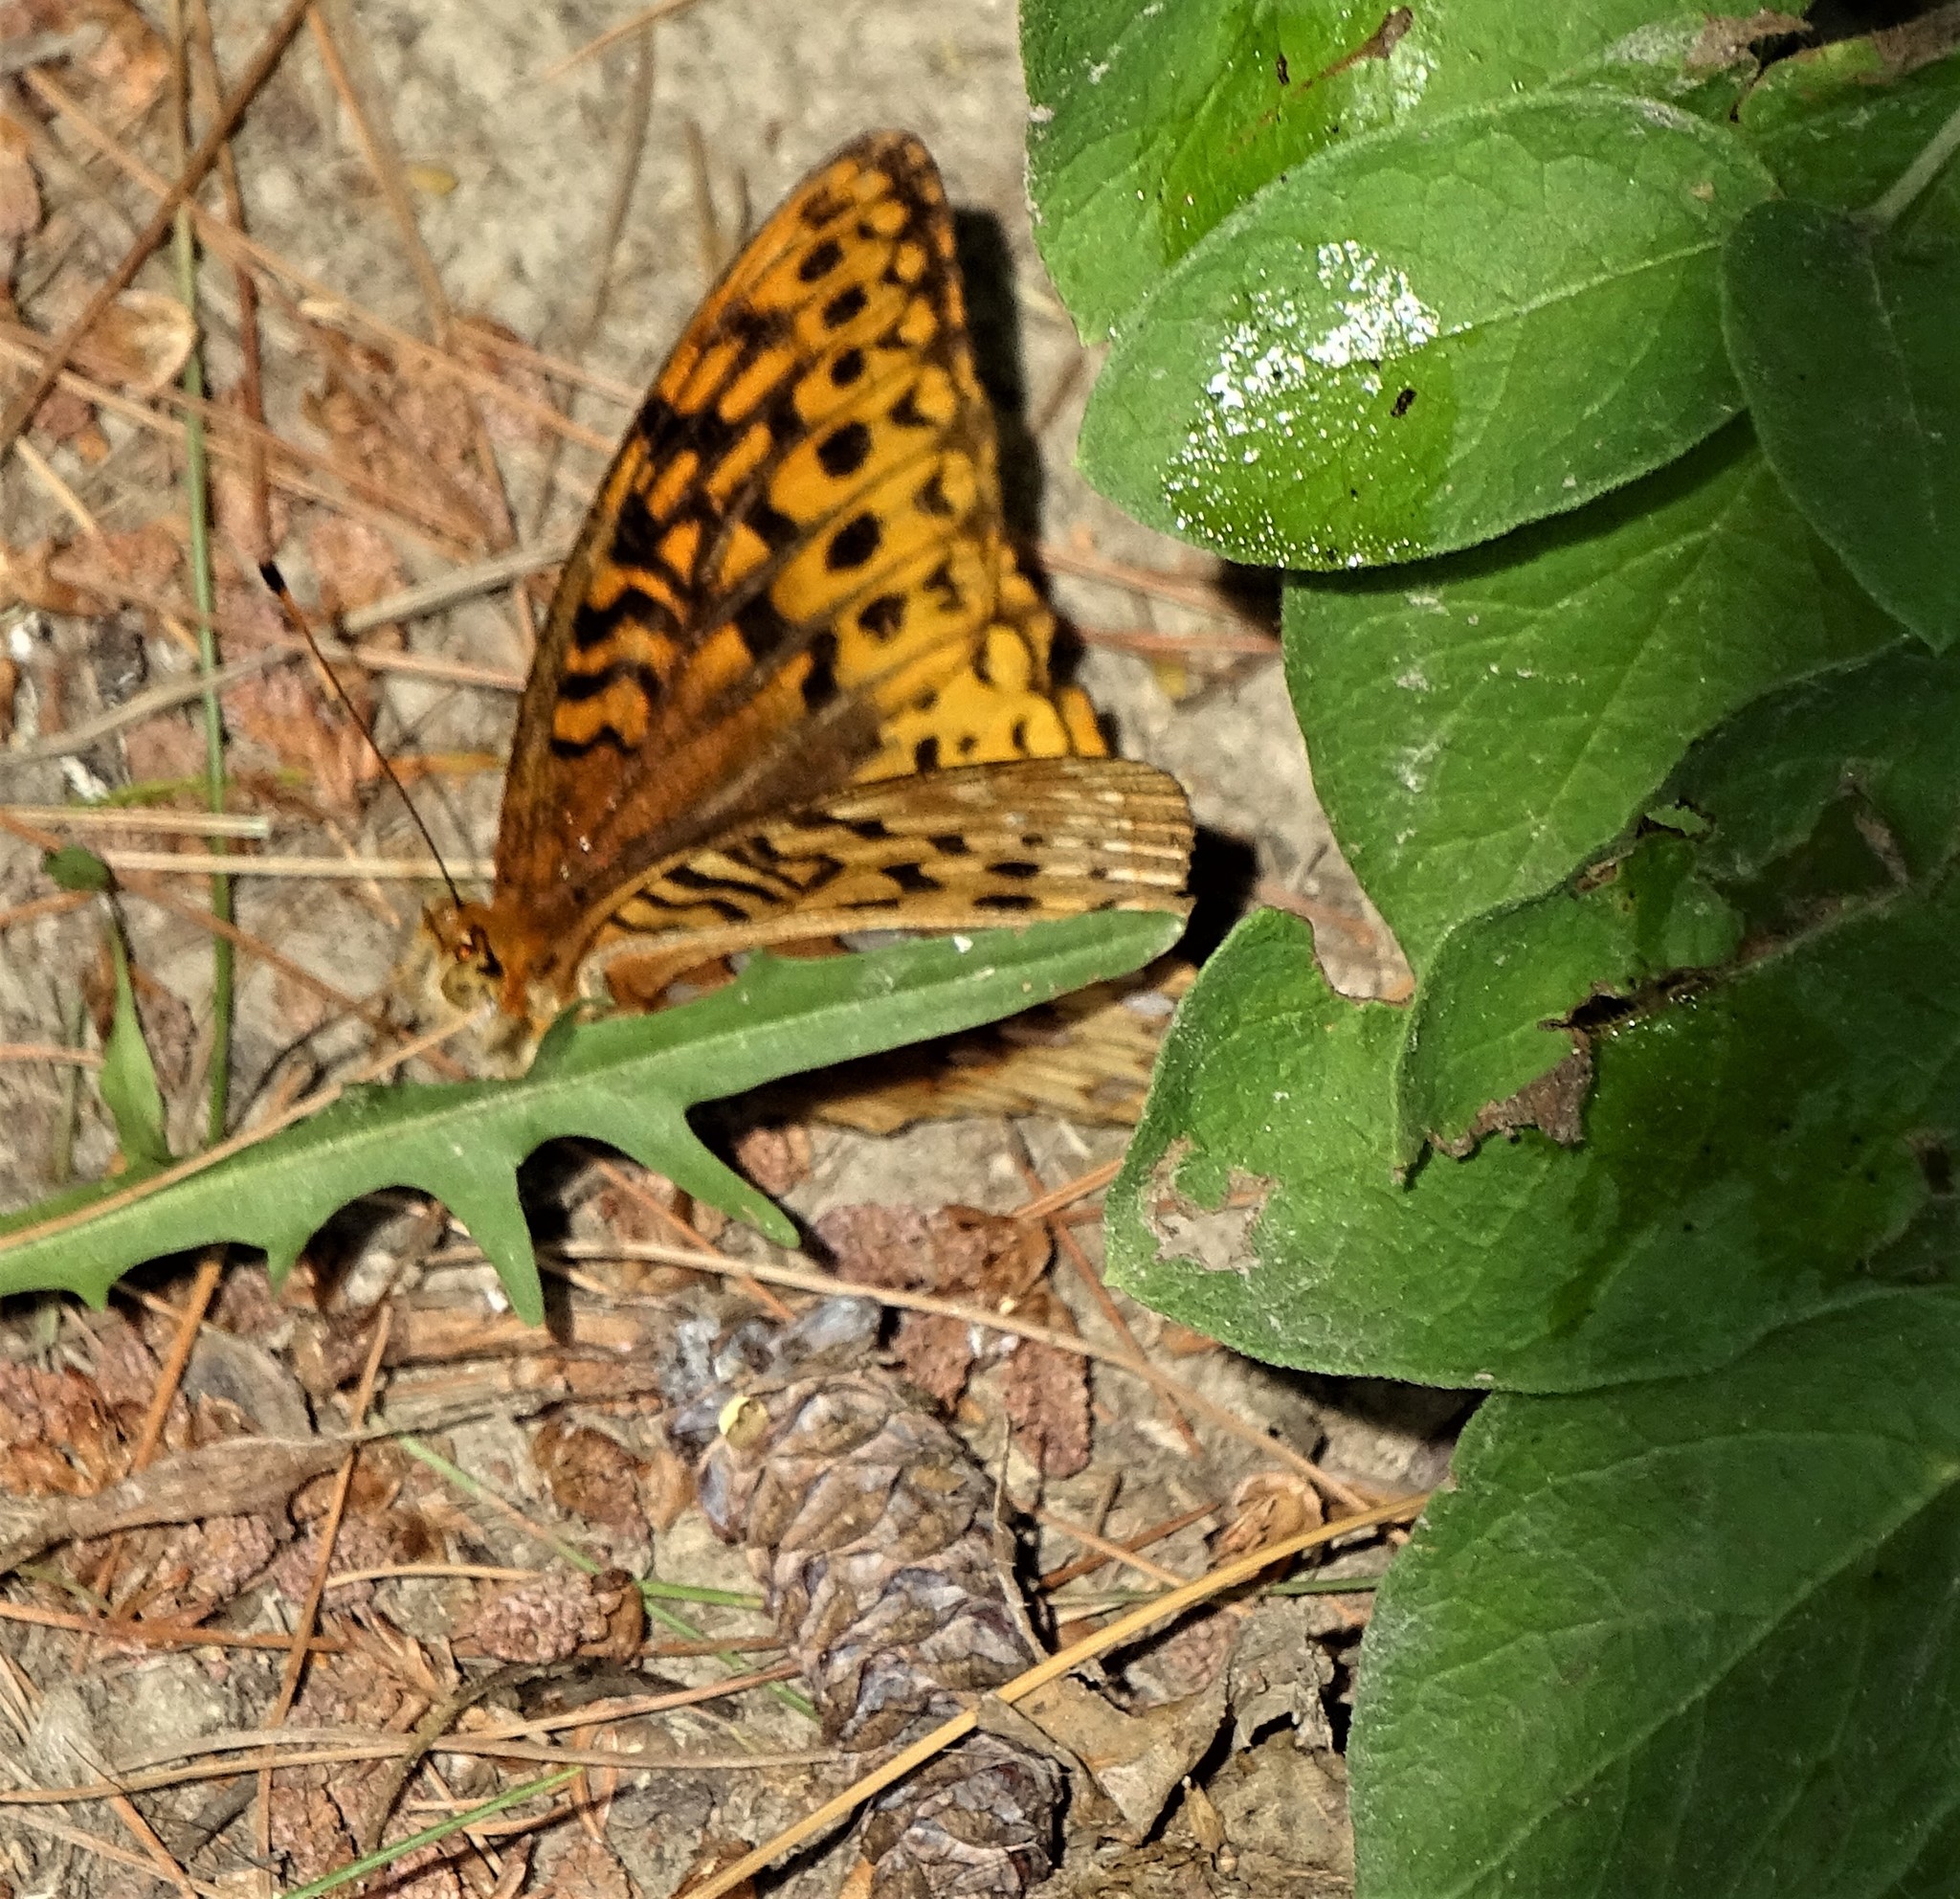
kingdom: Animalia
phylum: Arthropoda
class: Insecta
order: Lepidoptera
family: Nymphalidae
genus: Speyeria
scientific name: Speyeria cybele
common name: Great spangled fritillary
